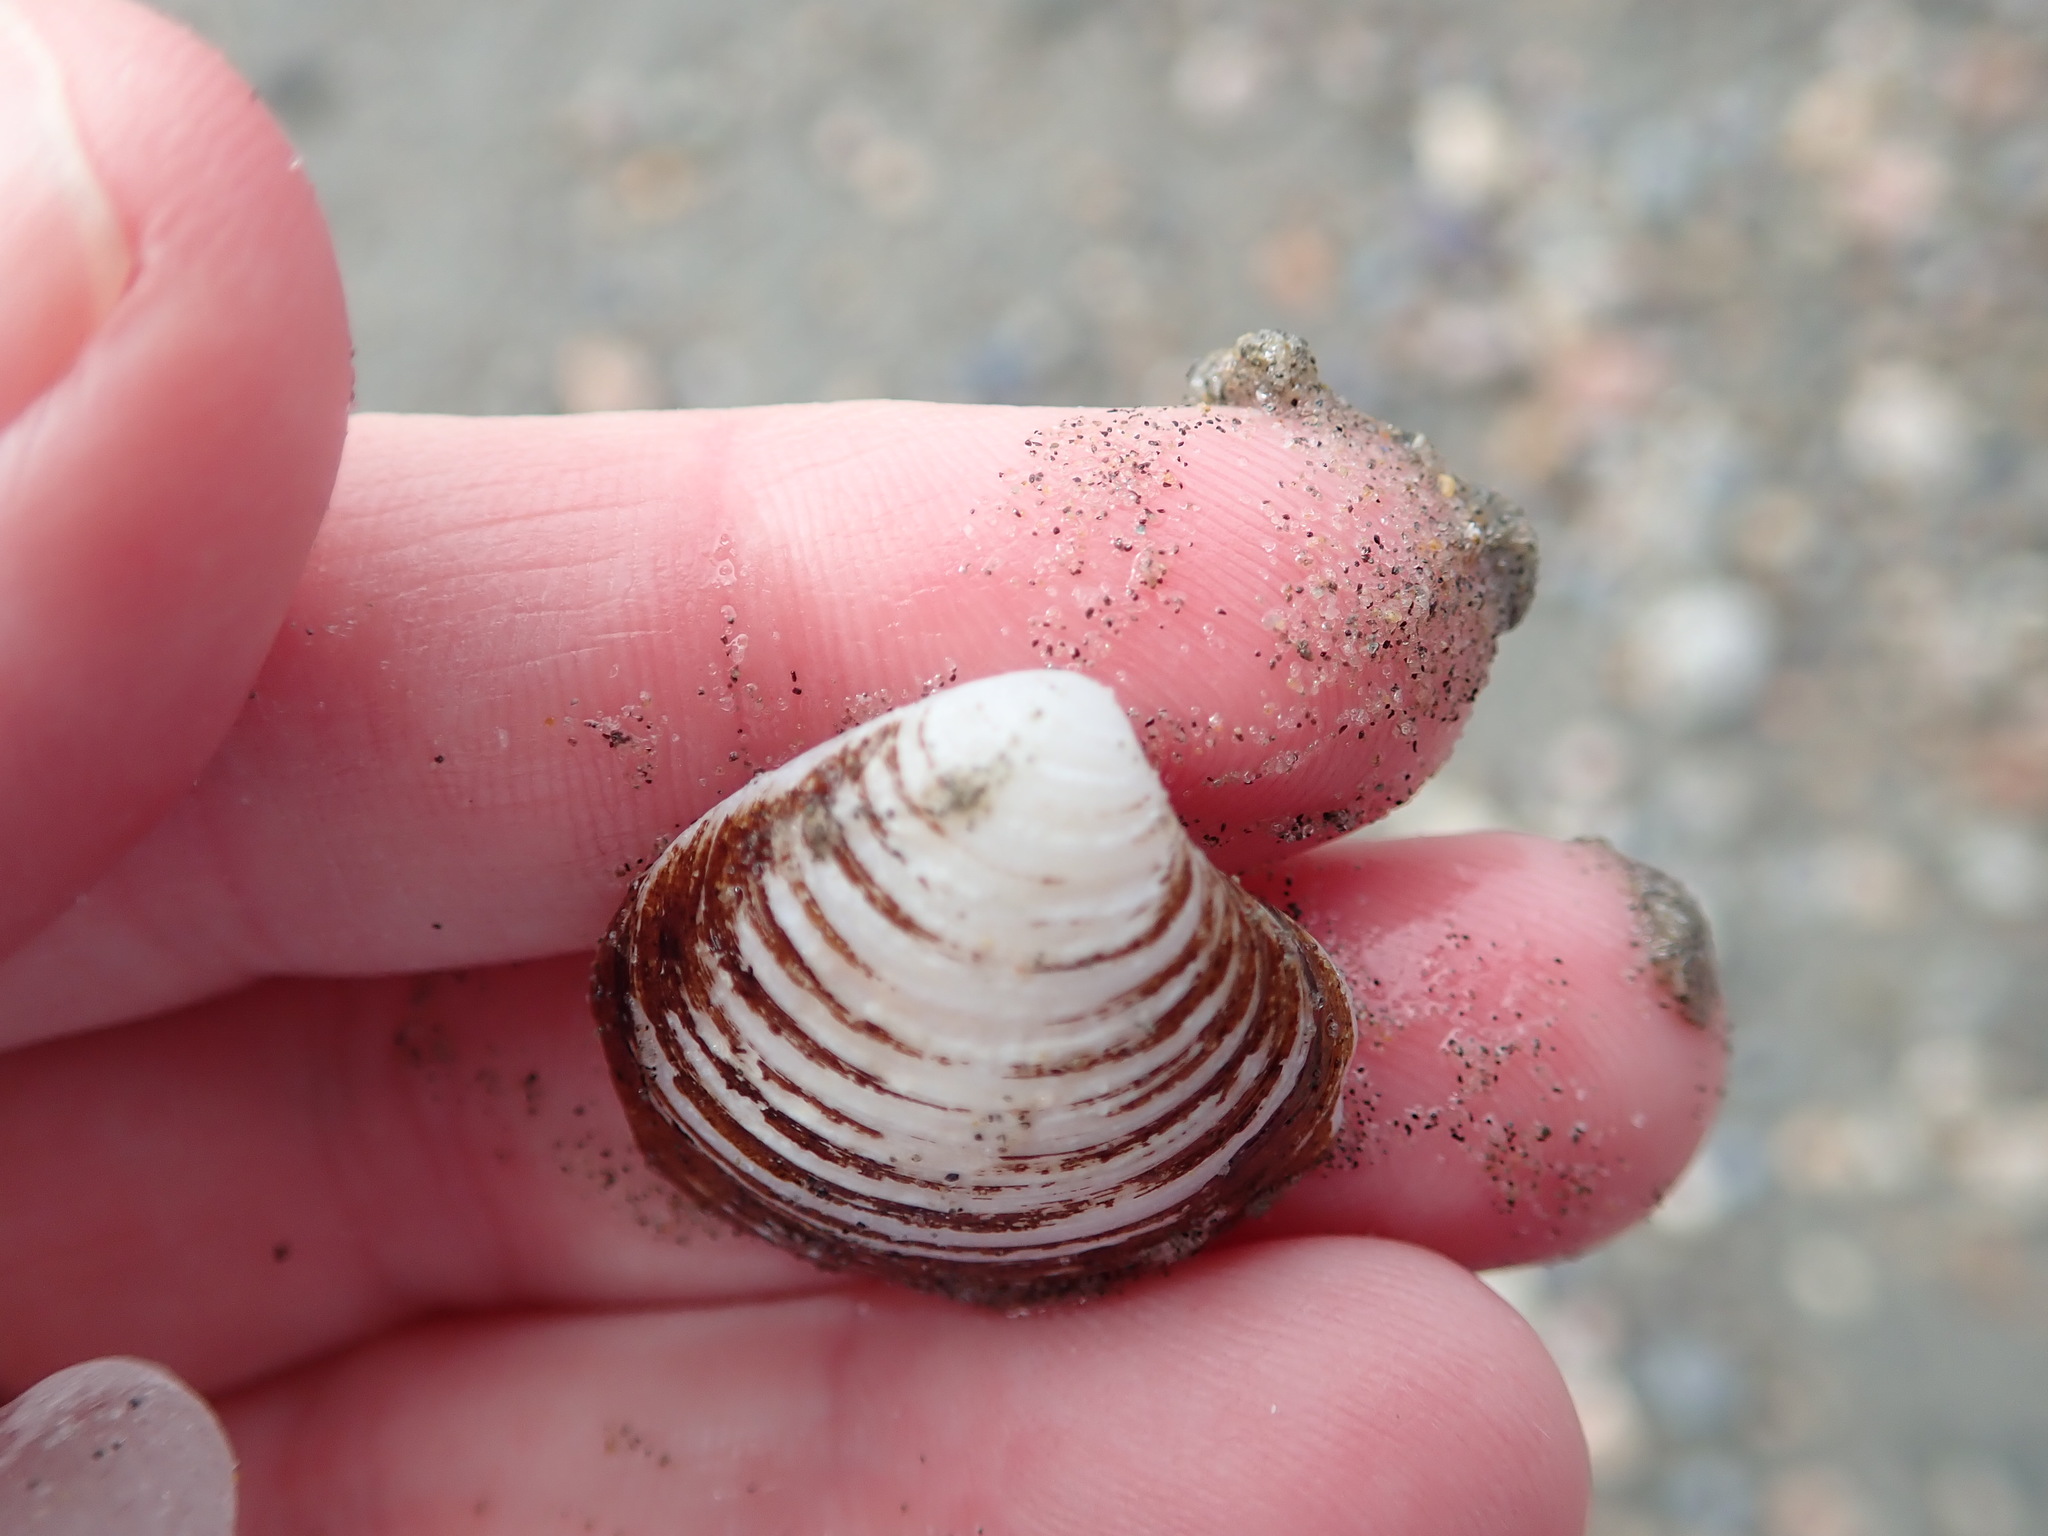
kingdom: Animalia
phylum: Mollusca
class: Bivalvia
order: Carditida
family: Astartidae
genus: Astarte
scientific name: Astarte undata
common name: Wavy astarte
